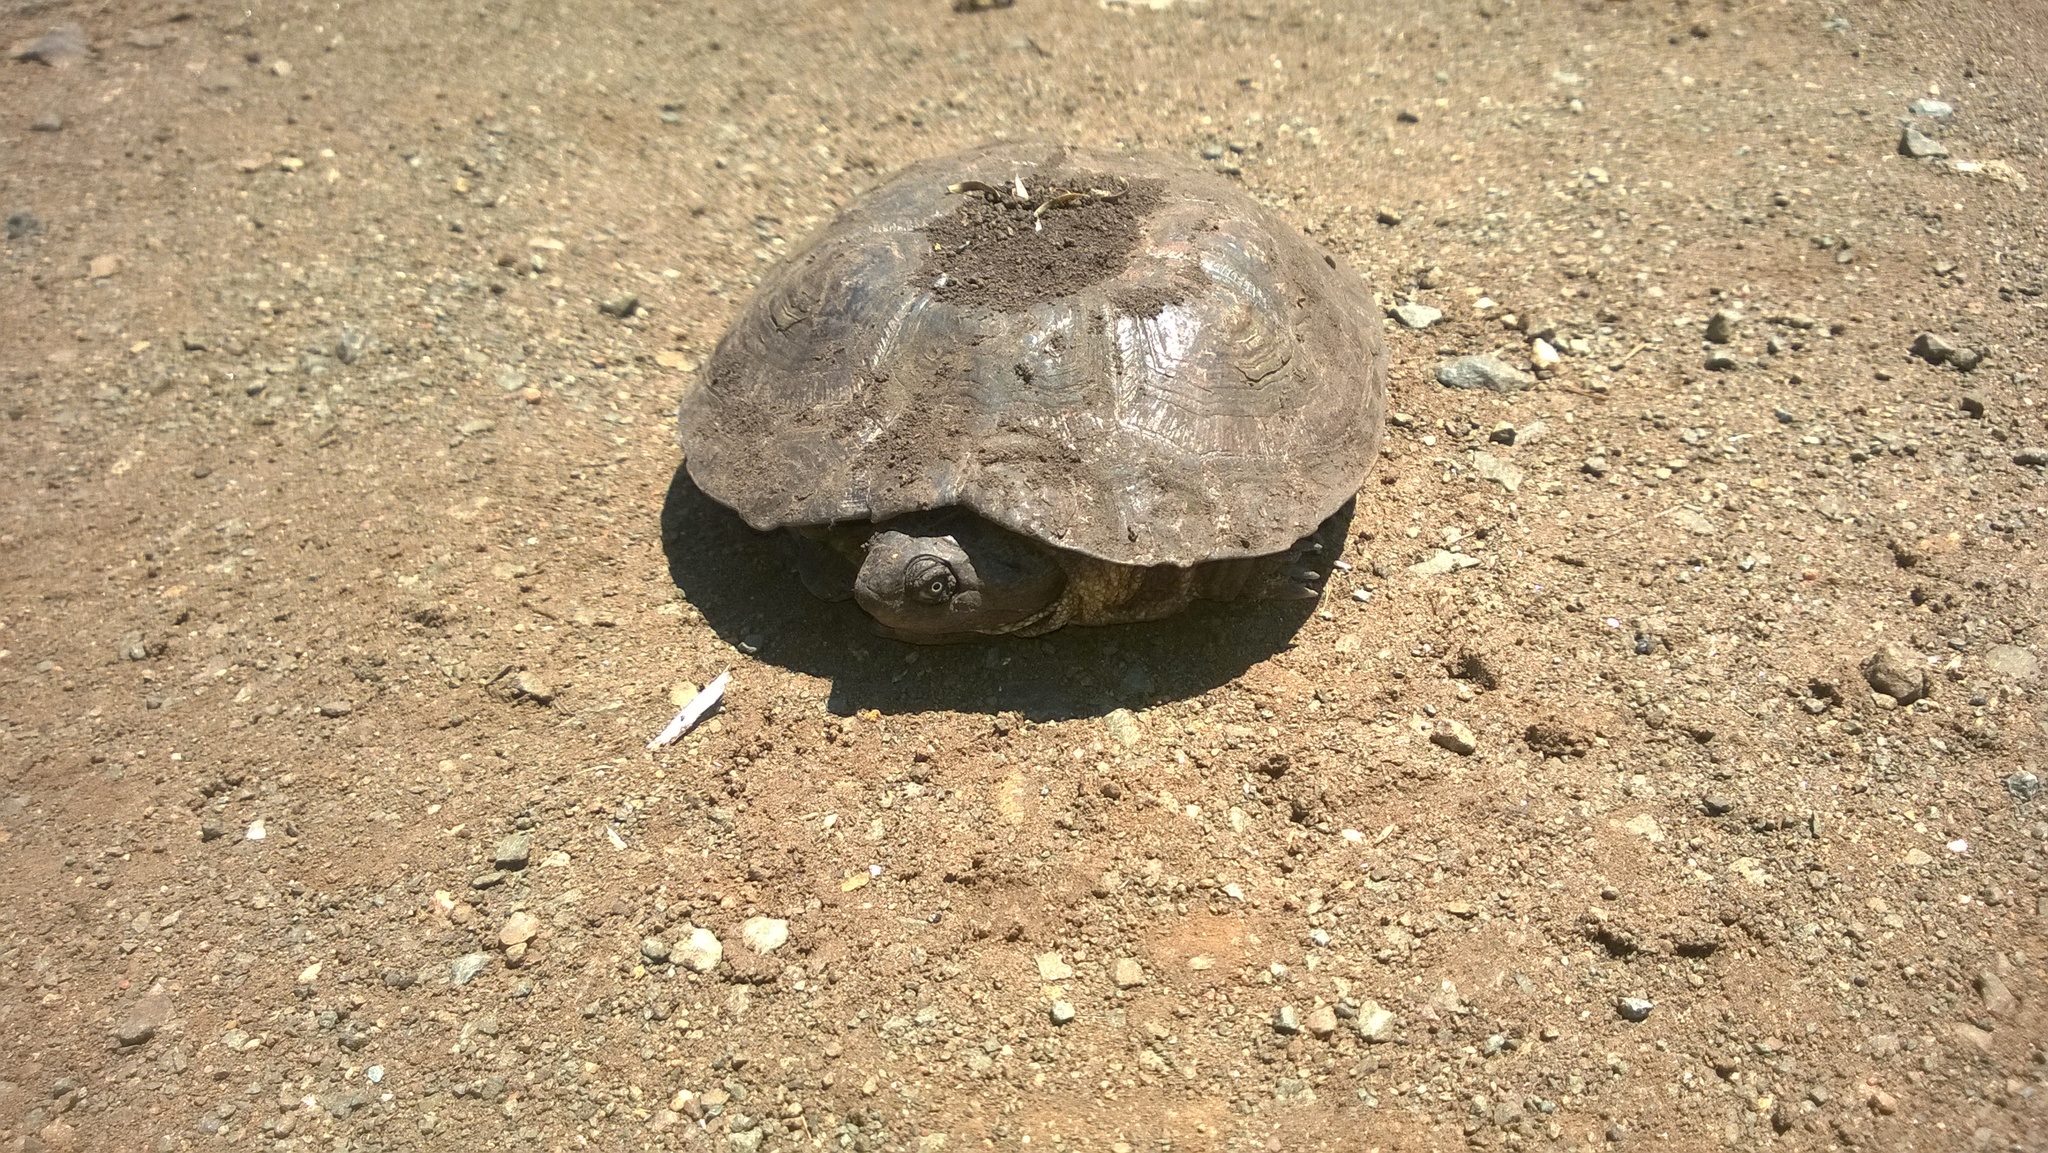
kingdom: Animalia
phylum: Chordata
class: Testudines
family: Pelomedusidae
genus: Pelomedusa
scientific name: Pelomedusa galeata
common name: South african helmeted terrapin
